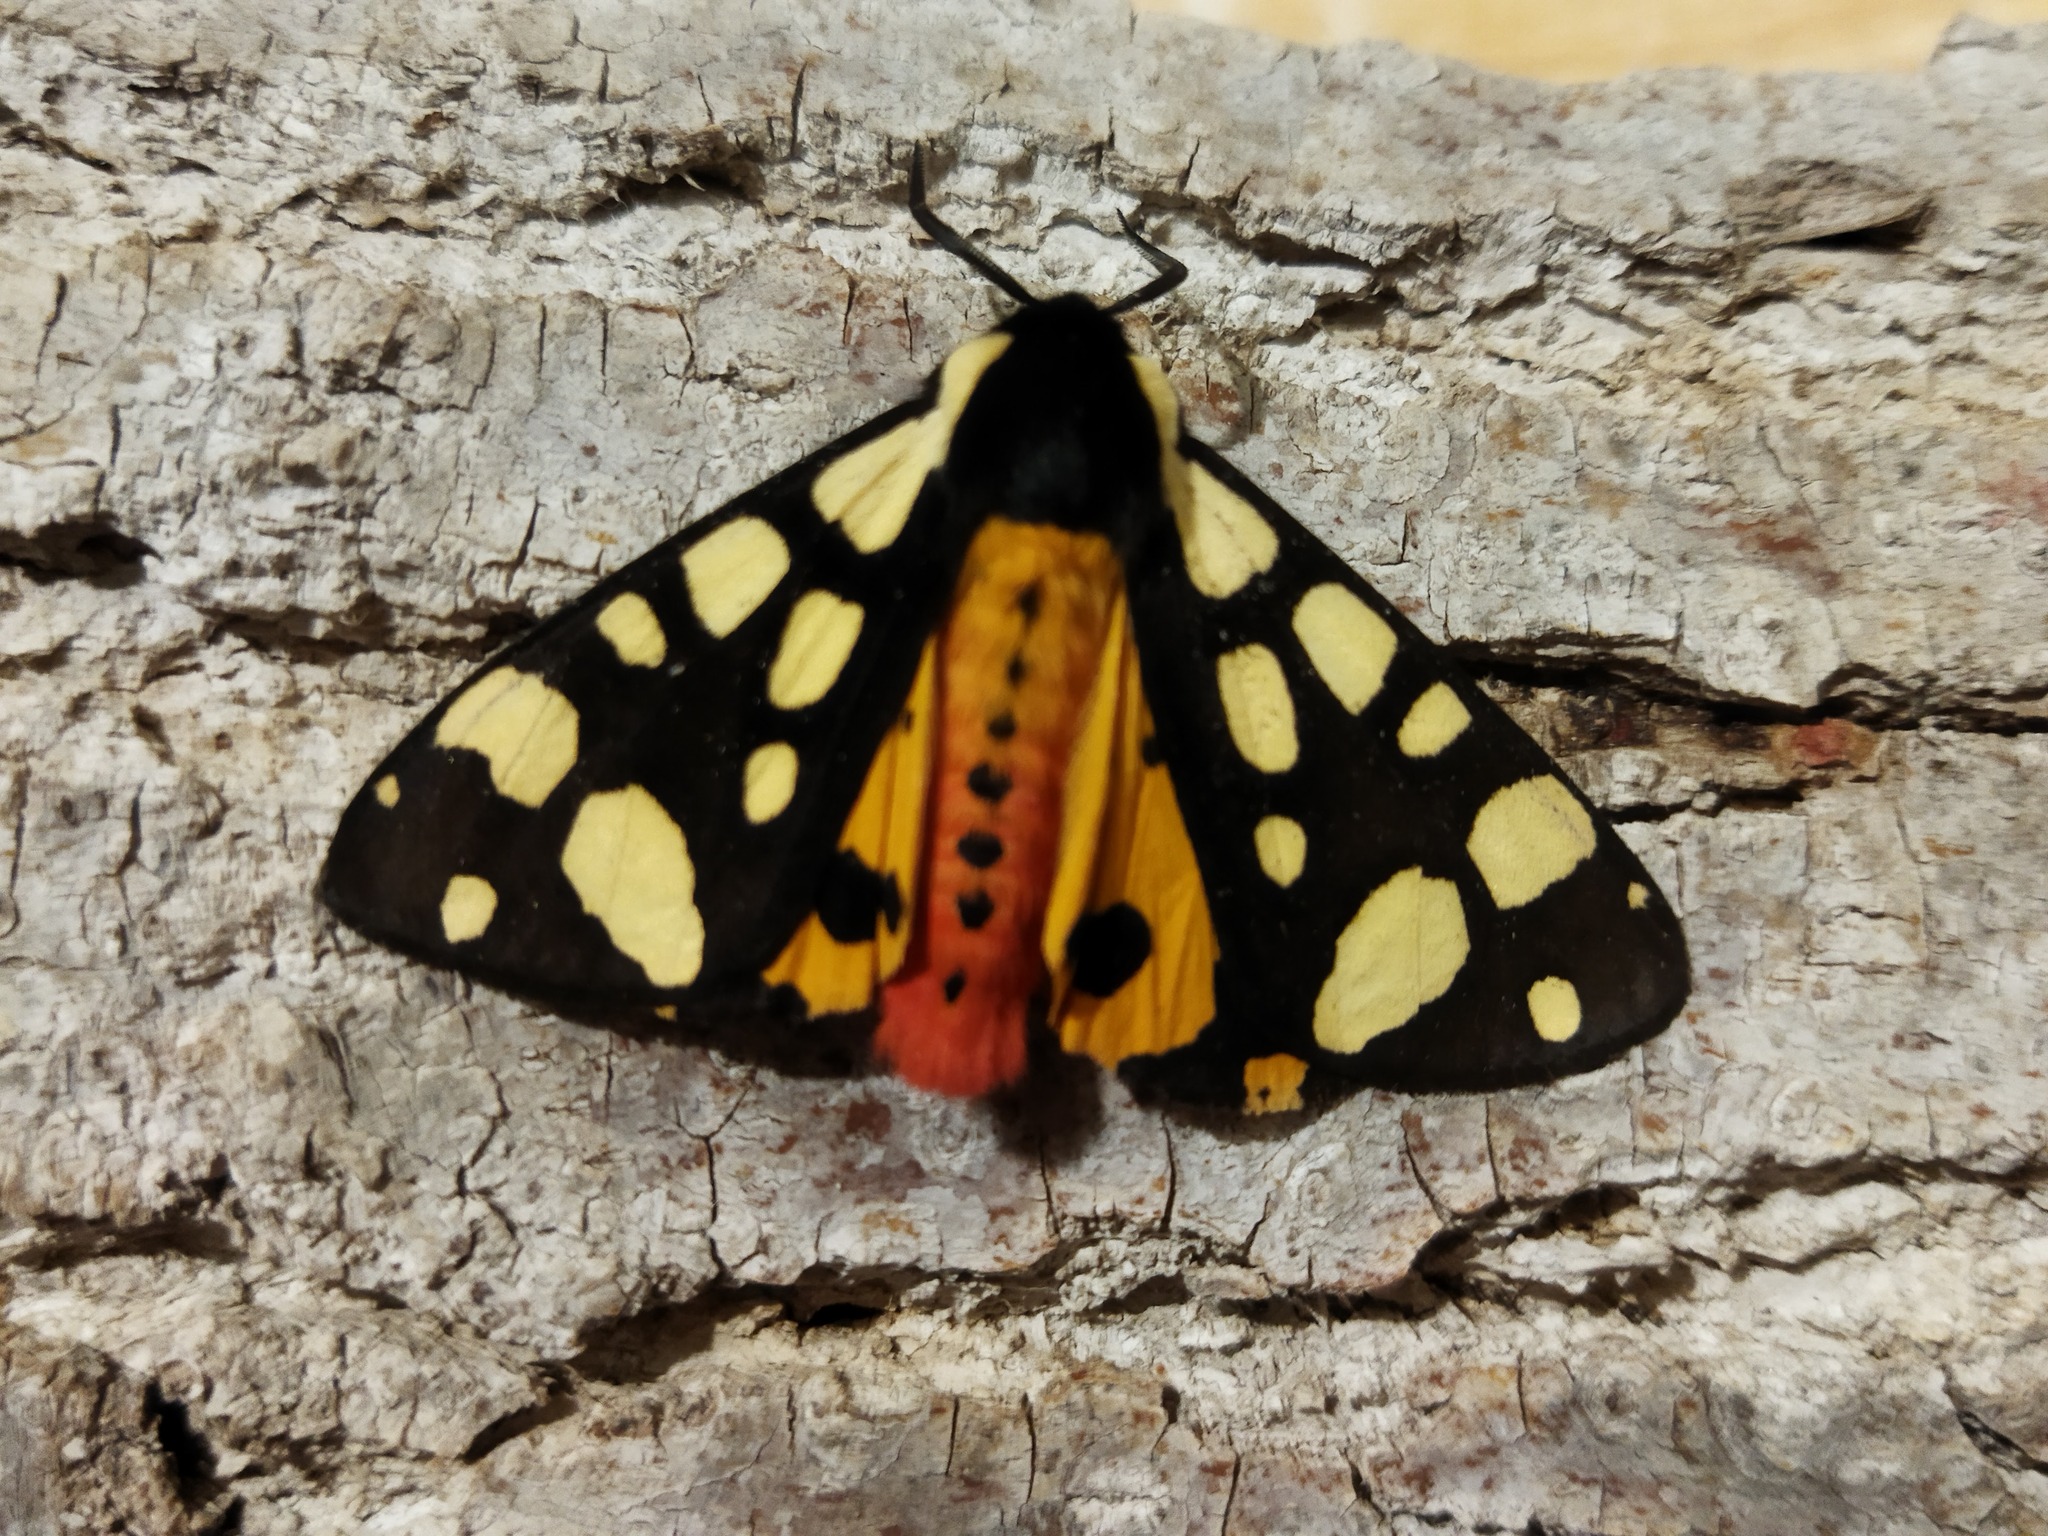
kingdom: Animalia
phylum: Arthropoda
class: Insecta
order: Lepidoptera
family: Erebidae
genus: Epicallia
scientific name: Epicallia villica
